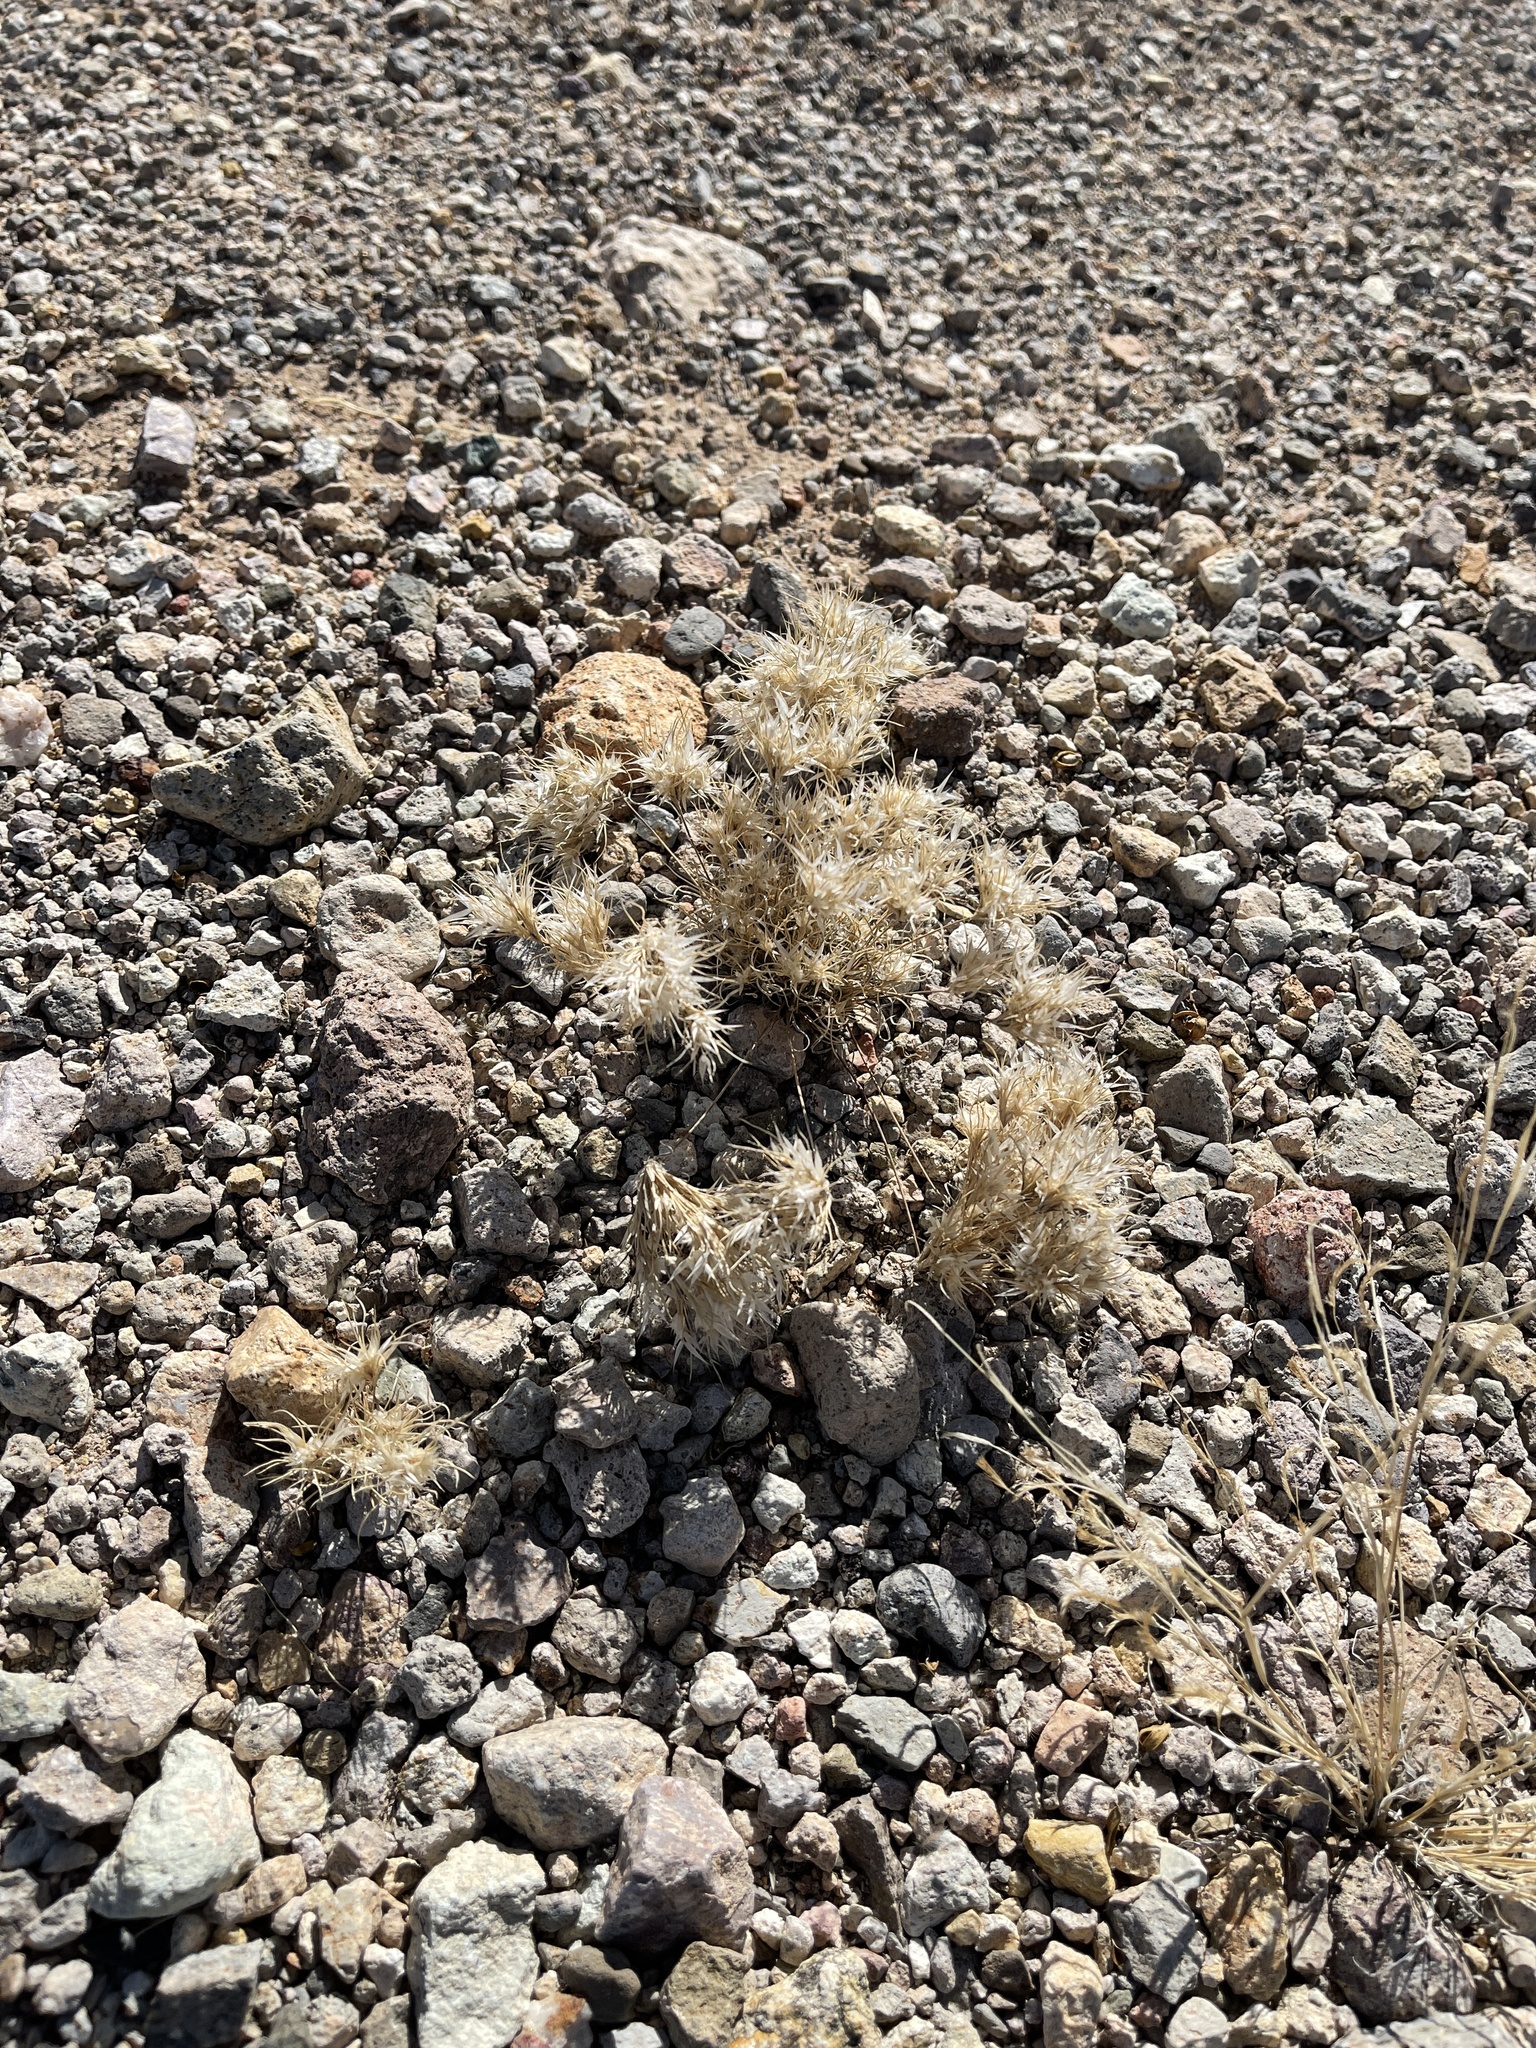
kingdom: Plantae
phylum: Tracheophyta
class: Liliopsida
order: Poales
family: Poaceae
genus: Dasyochloa
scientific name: Dasyochloa pulchella
